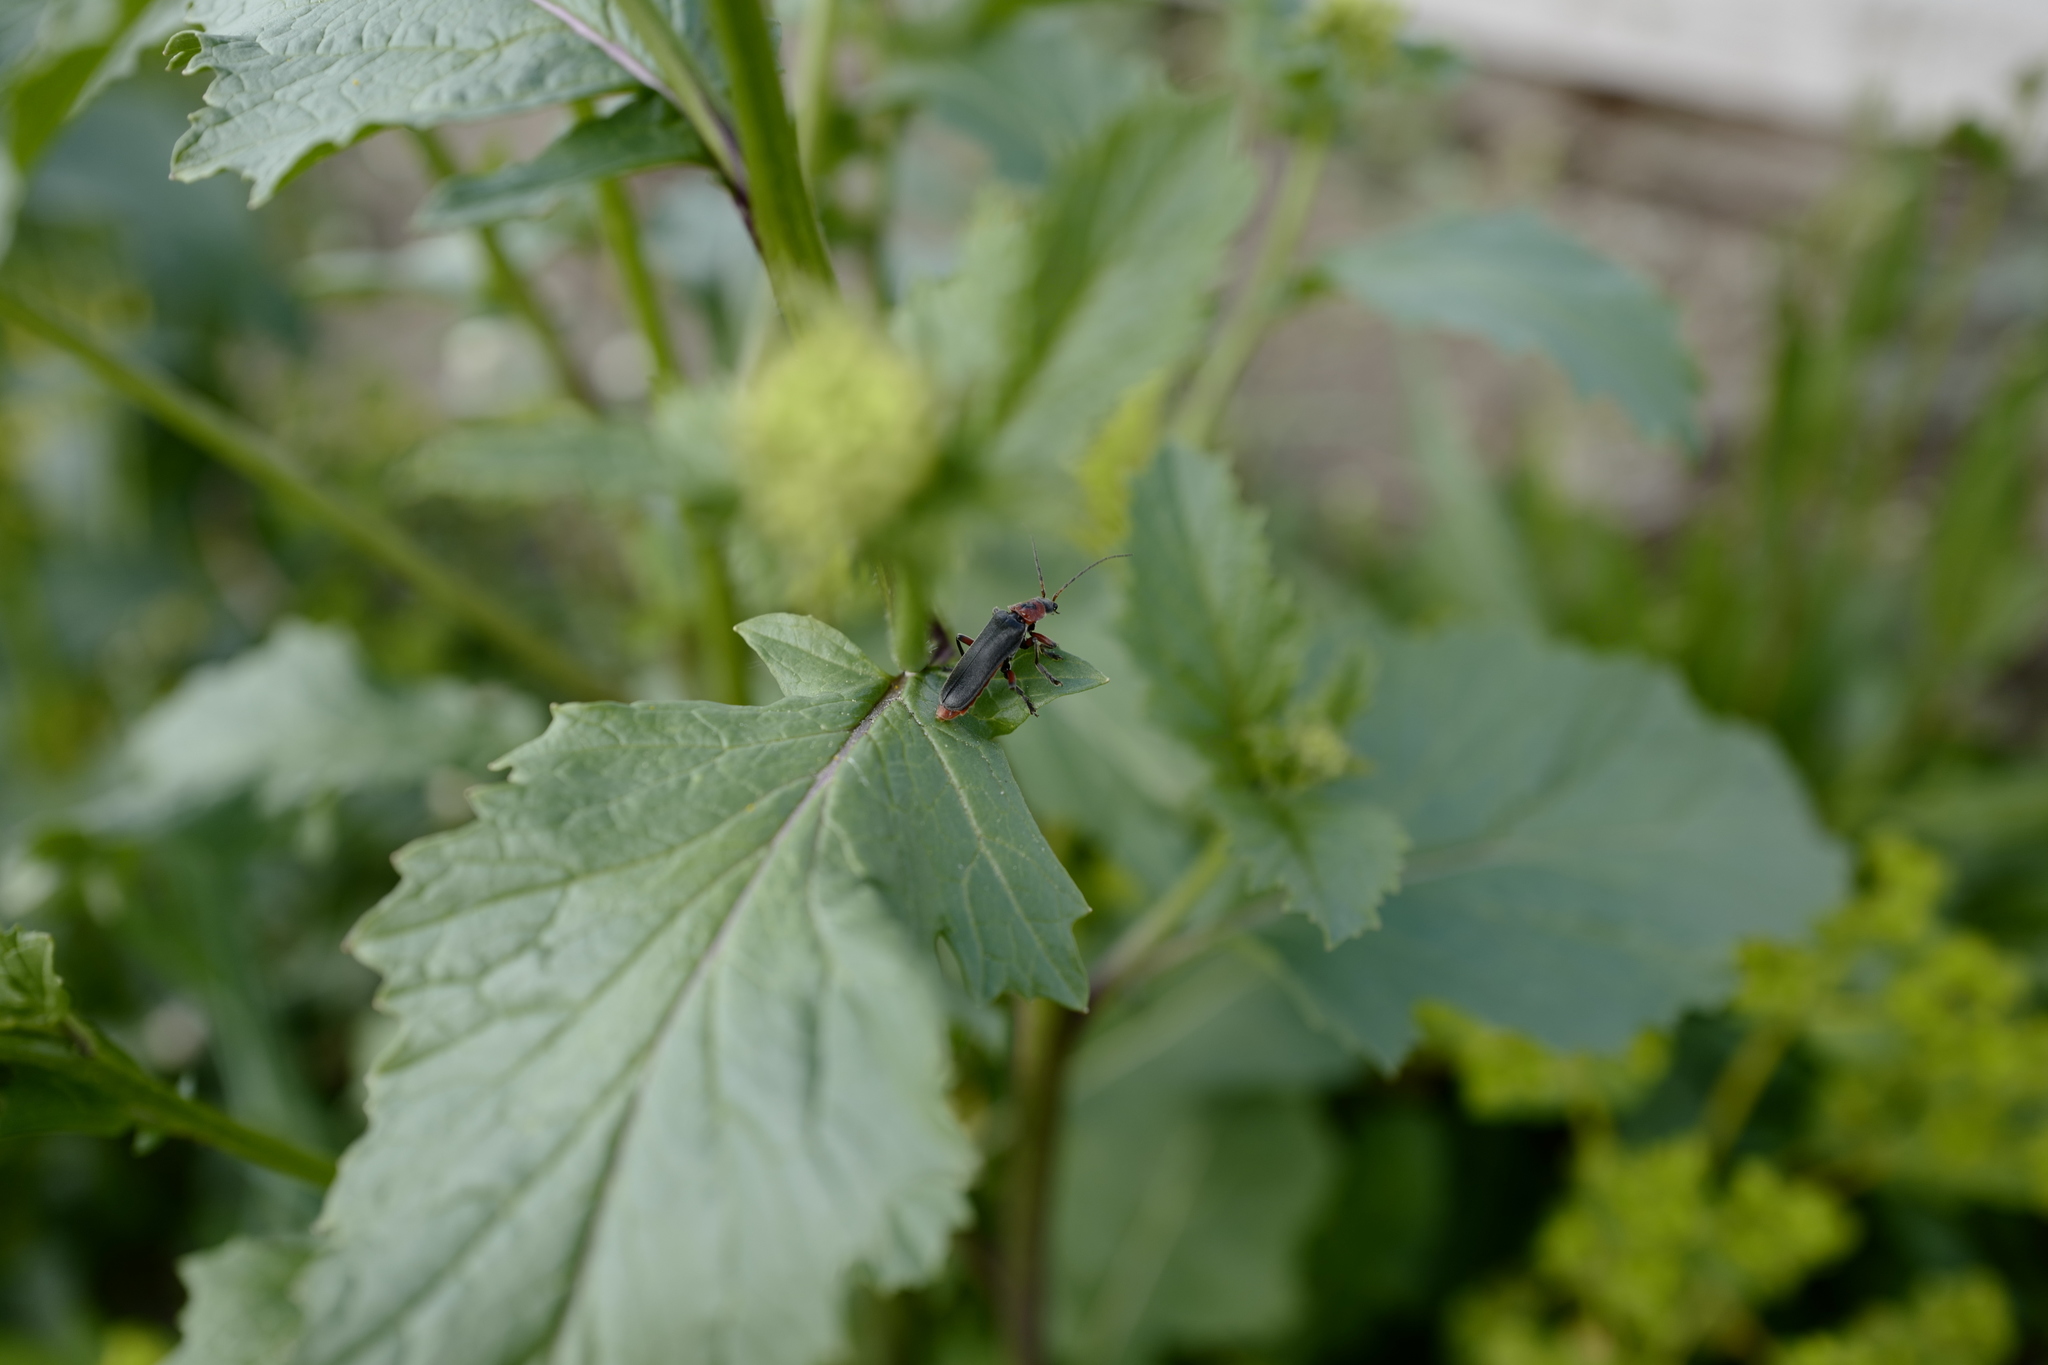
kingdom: Animalia
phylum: Arthropoda
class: Insecta
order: Coleoptera
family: Cantharidae
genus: Cantharis
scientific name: Cantharis rustica
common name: Soldier beetle
